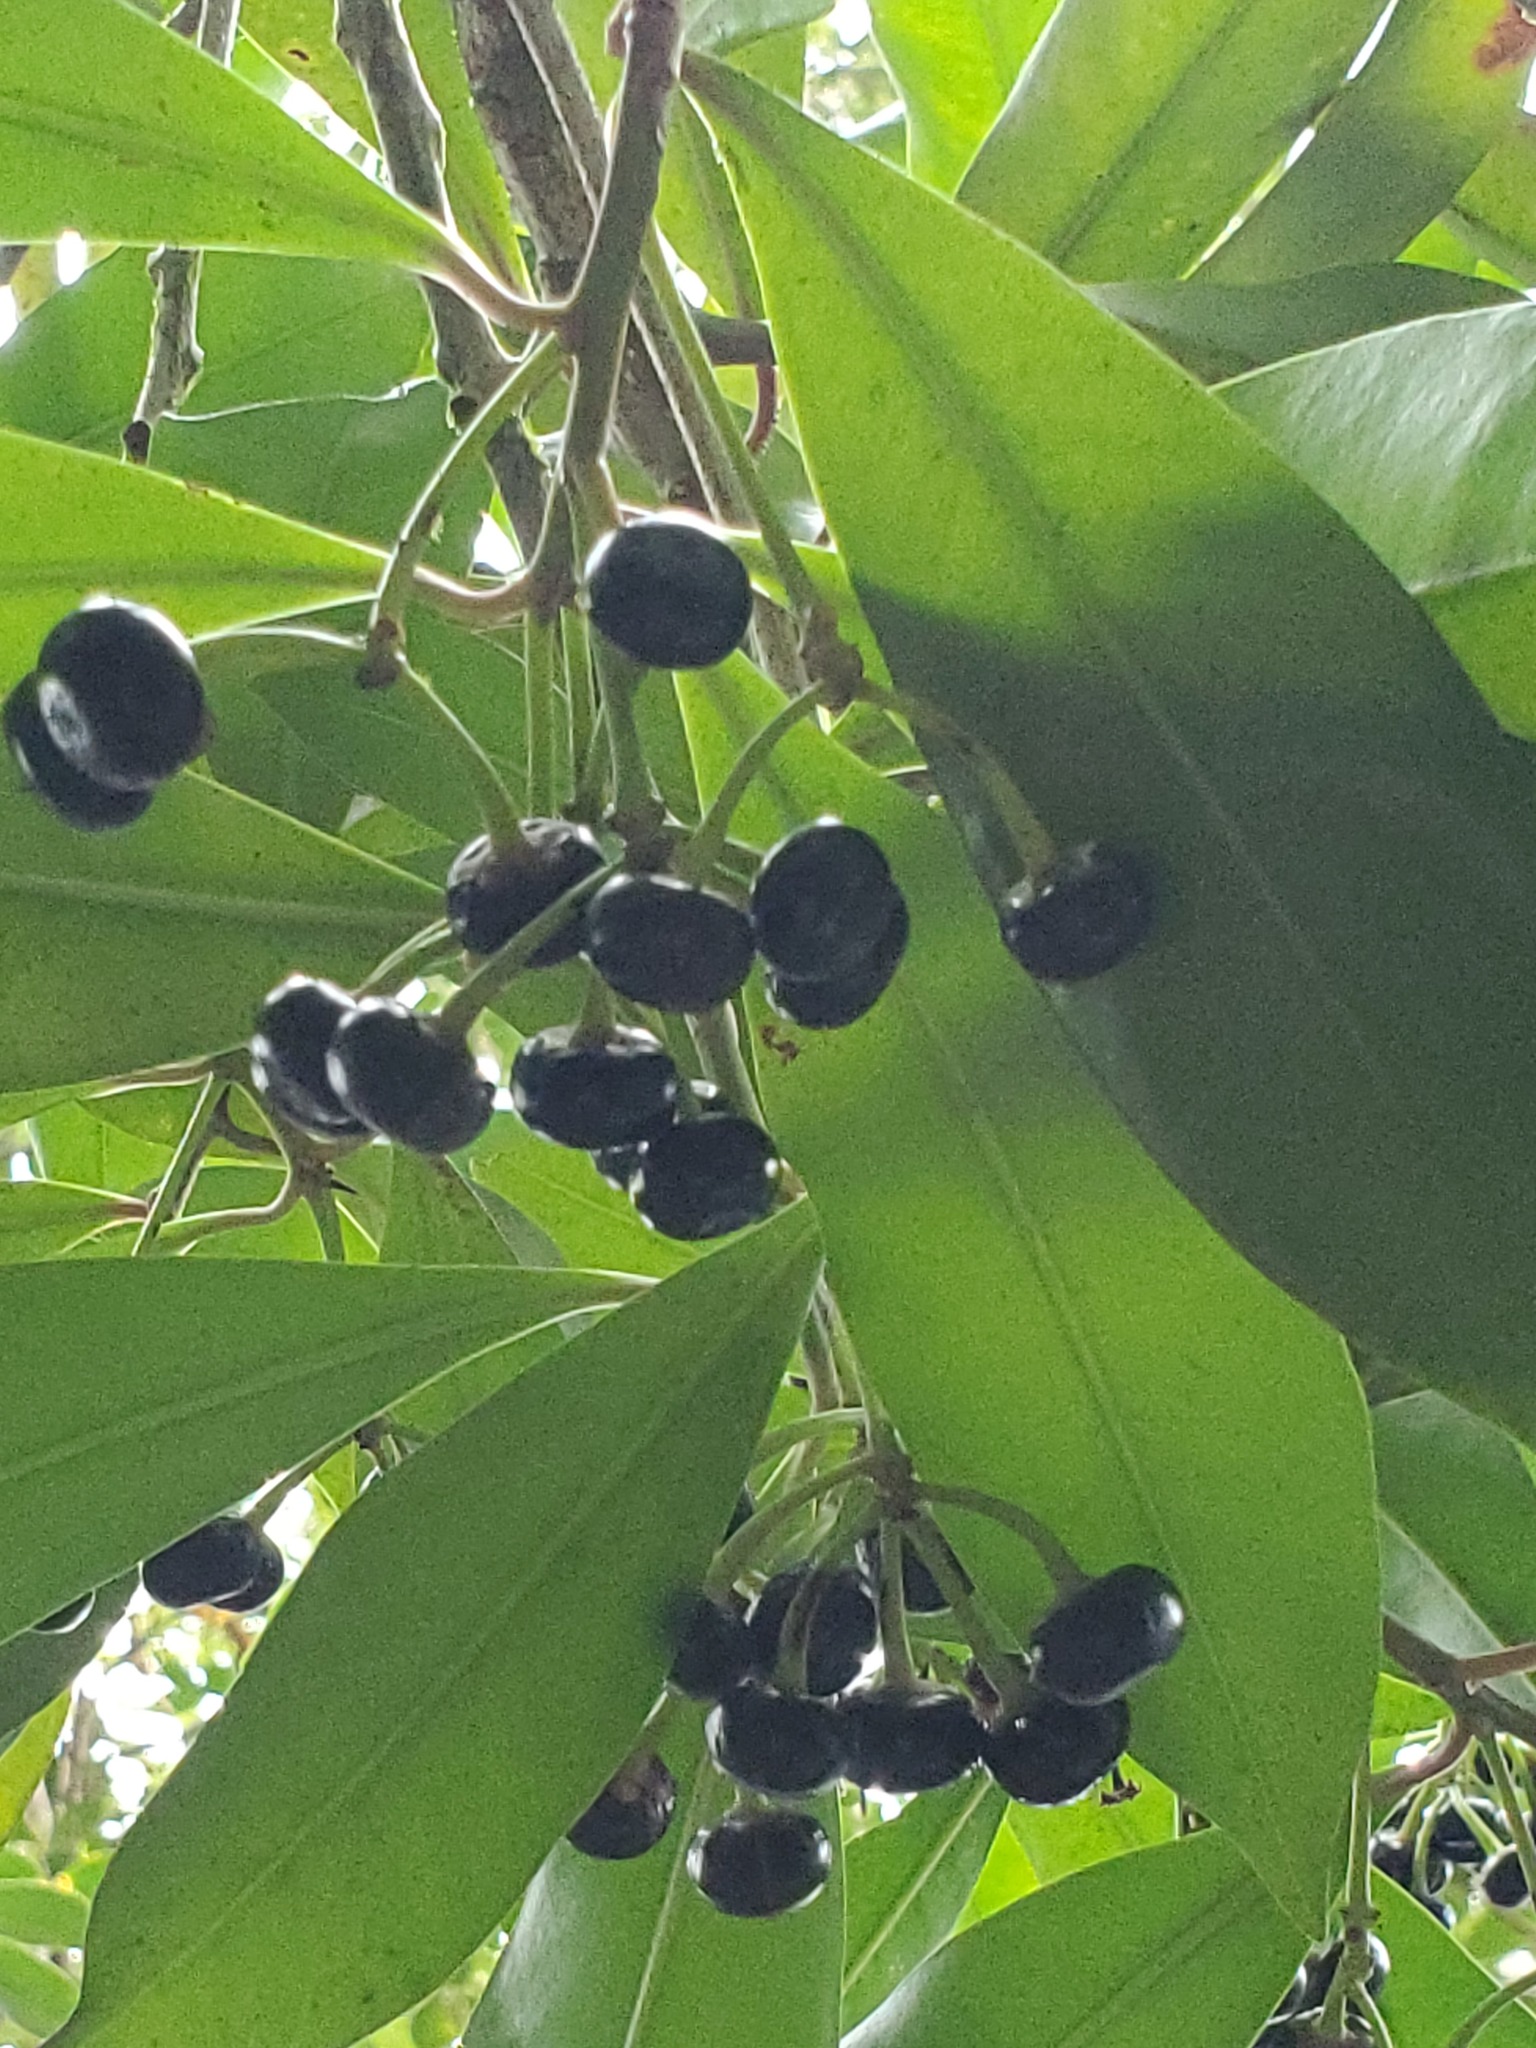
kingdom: Plantae
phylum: Tracheophyta
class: Magnoliopsida
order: Ericales
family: Primulaceae
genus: Ardisia
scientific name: Ardisia elliptica
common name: Shoebutton
